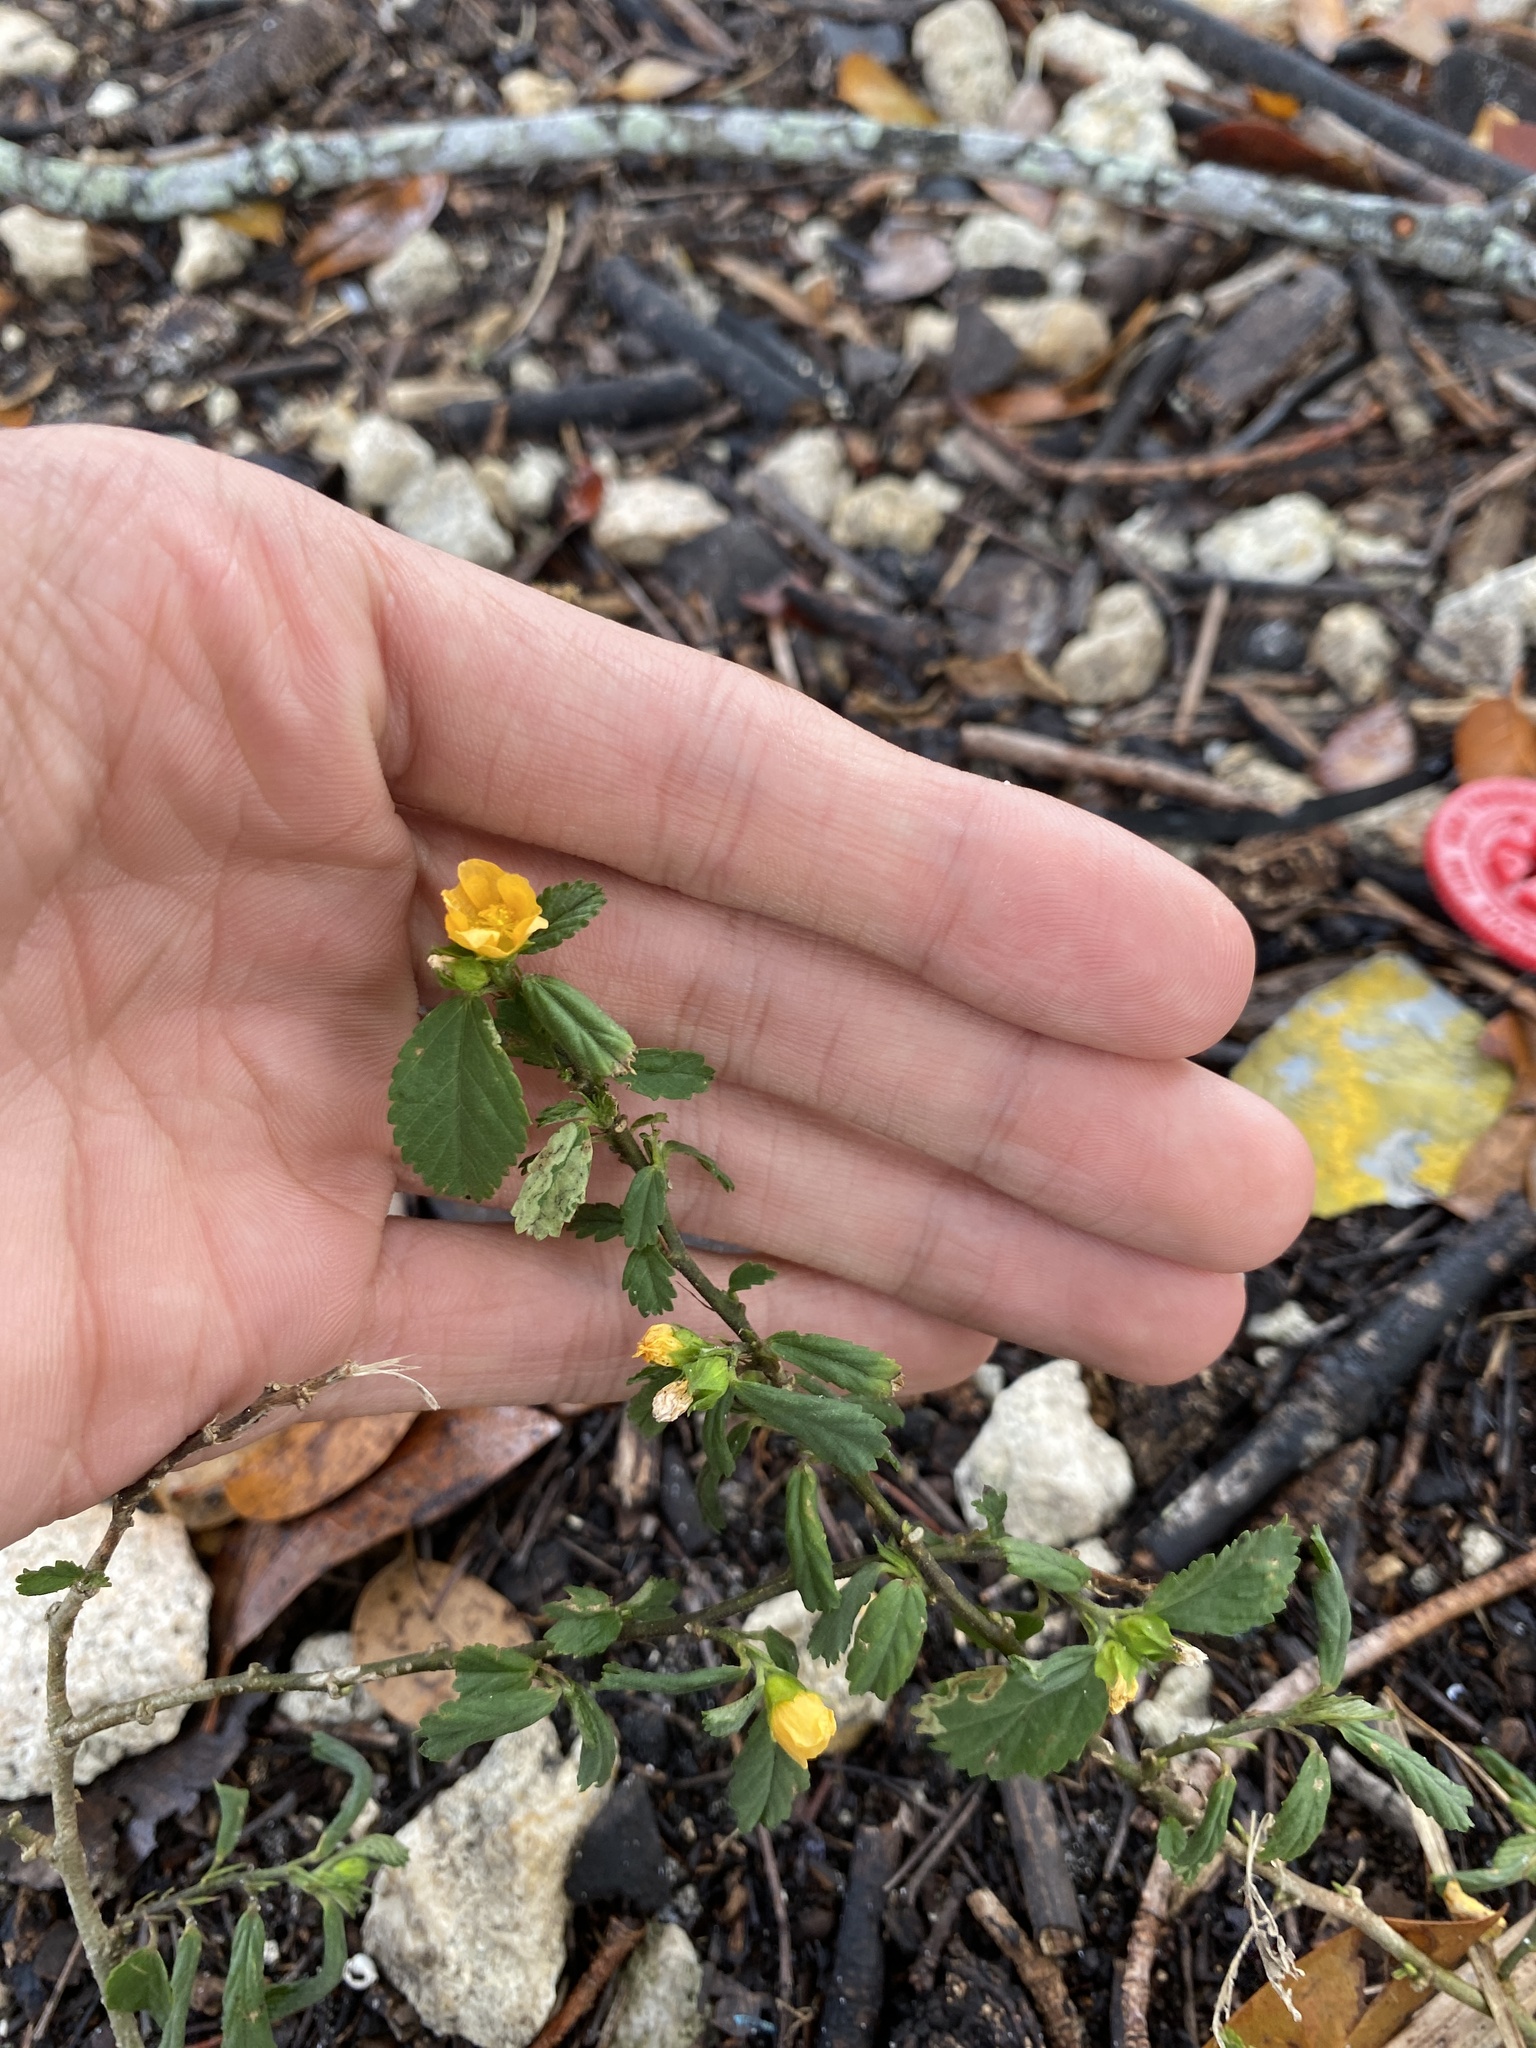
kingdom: Plantae
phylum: Tracheophyta
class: Magnoliopsida
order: Malvales
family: Malvaceae
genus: Sida
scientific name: Sida ulmifolia
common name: Broom weed
